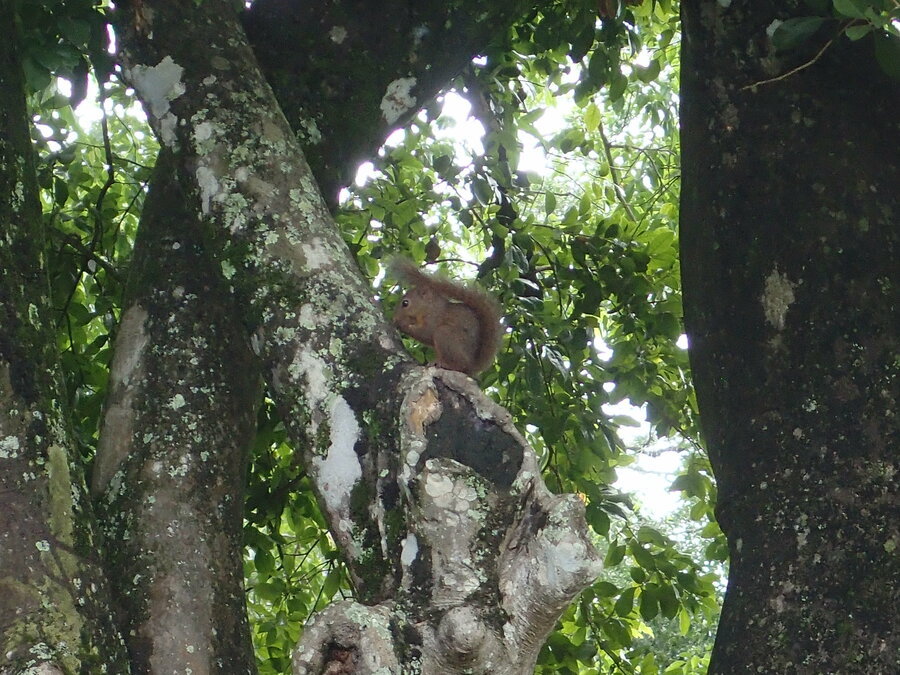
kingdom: Animalia
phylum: Chordata
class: Mammalia
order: Rodentia
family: Sciuridae
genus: Sciurus
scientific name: Sciurus granatensis
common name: Red-tailed squirrel
